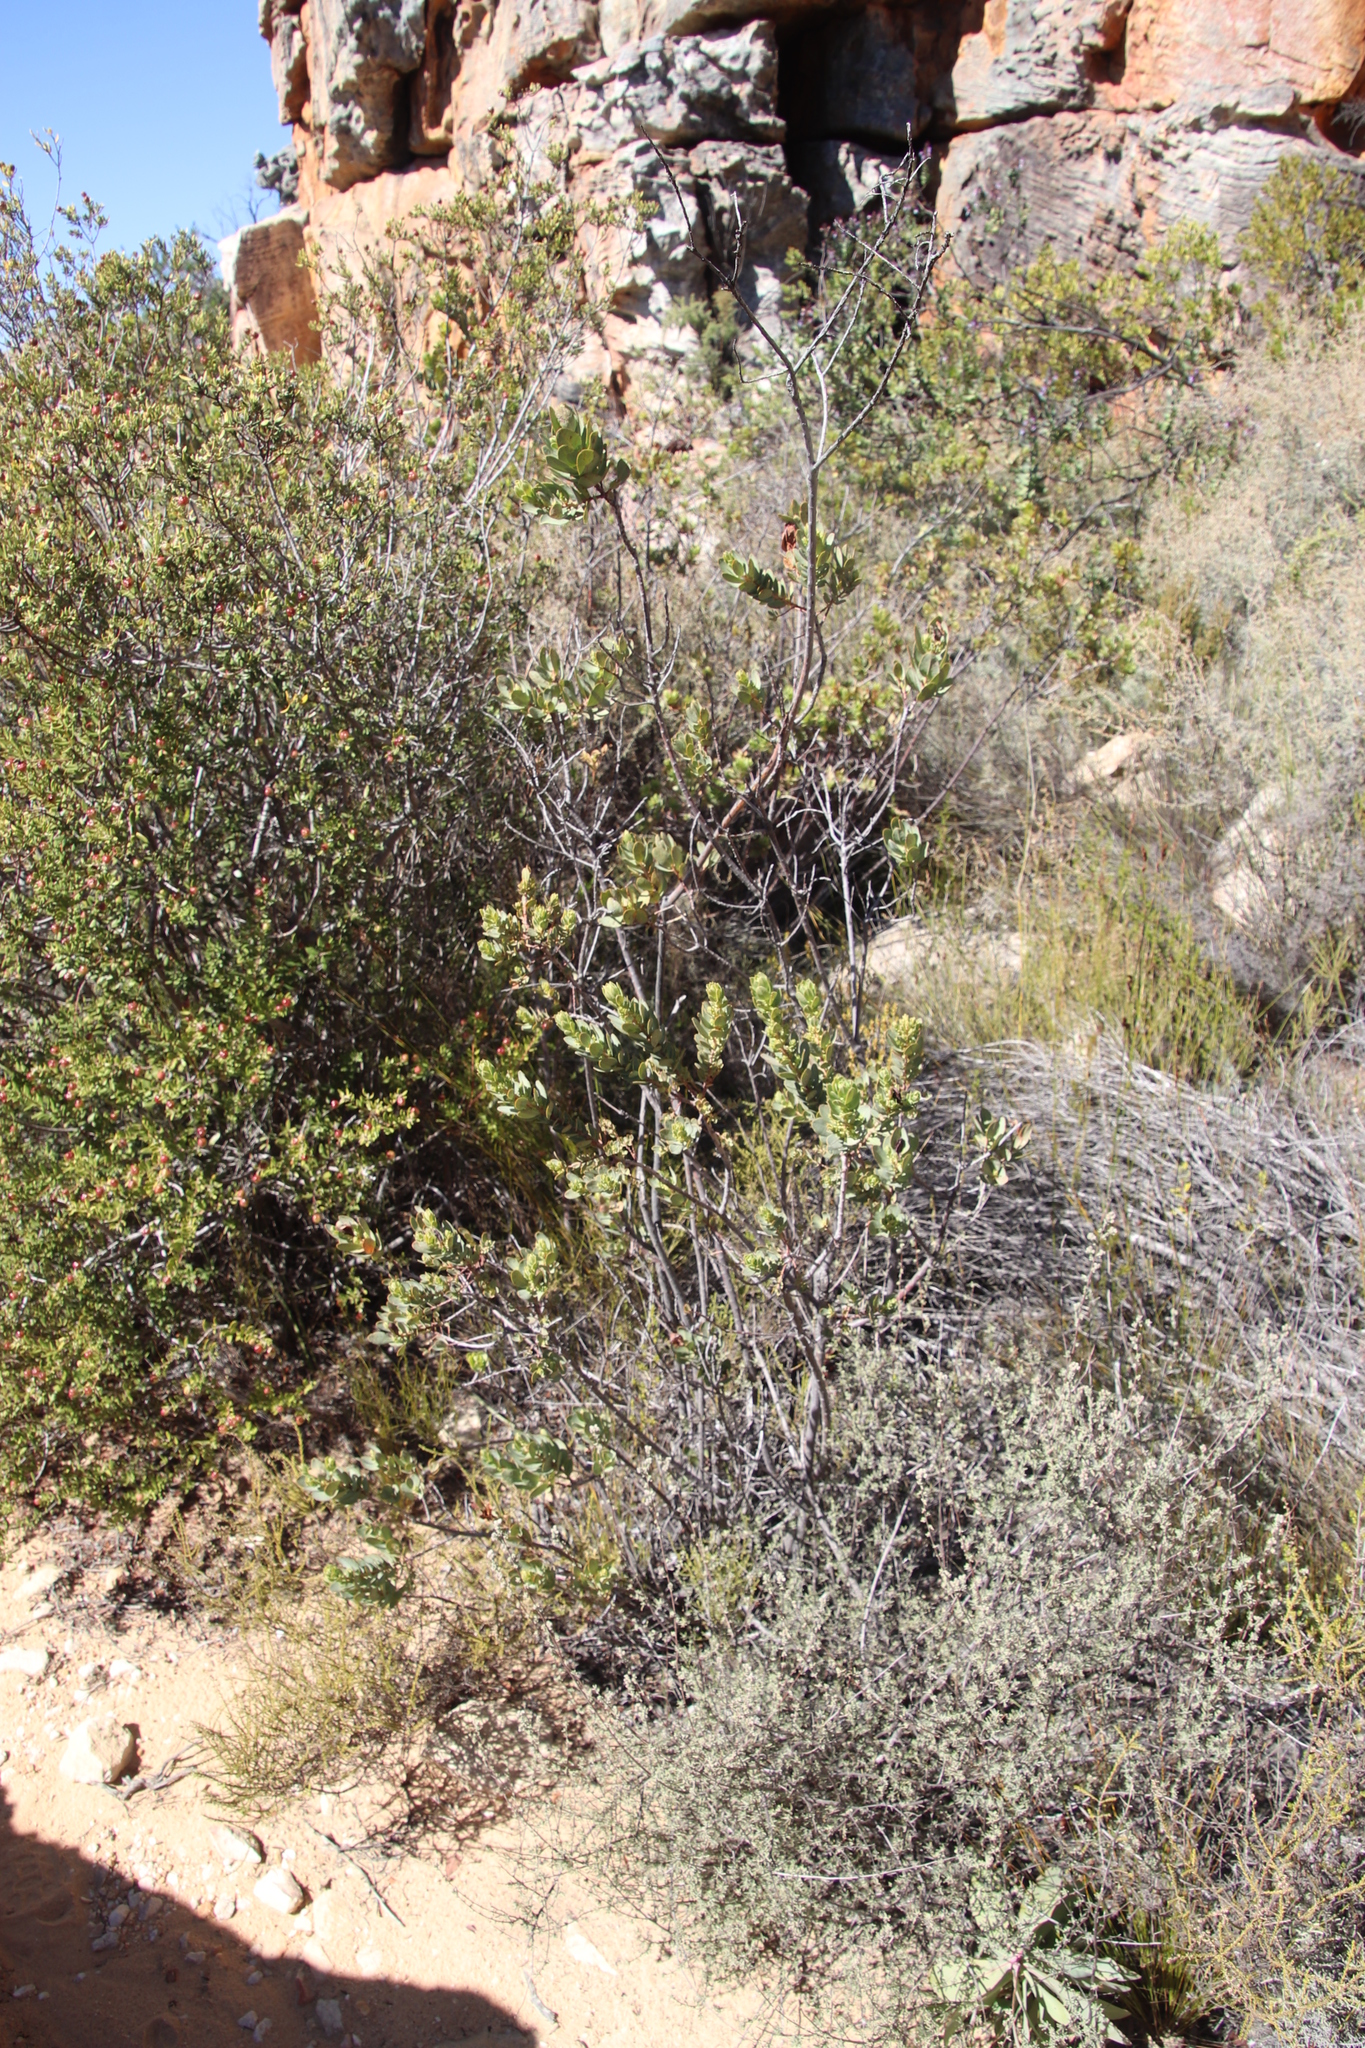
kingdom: Plantae
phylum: Tracheophyta
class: Magnoliopsida
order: Santalales
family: Santalaceae
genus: Osyris
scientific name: Osyris compressa
